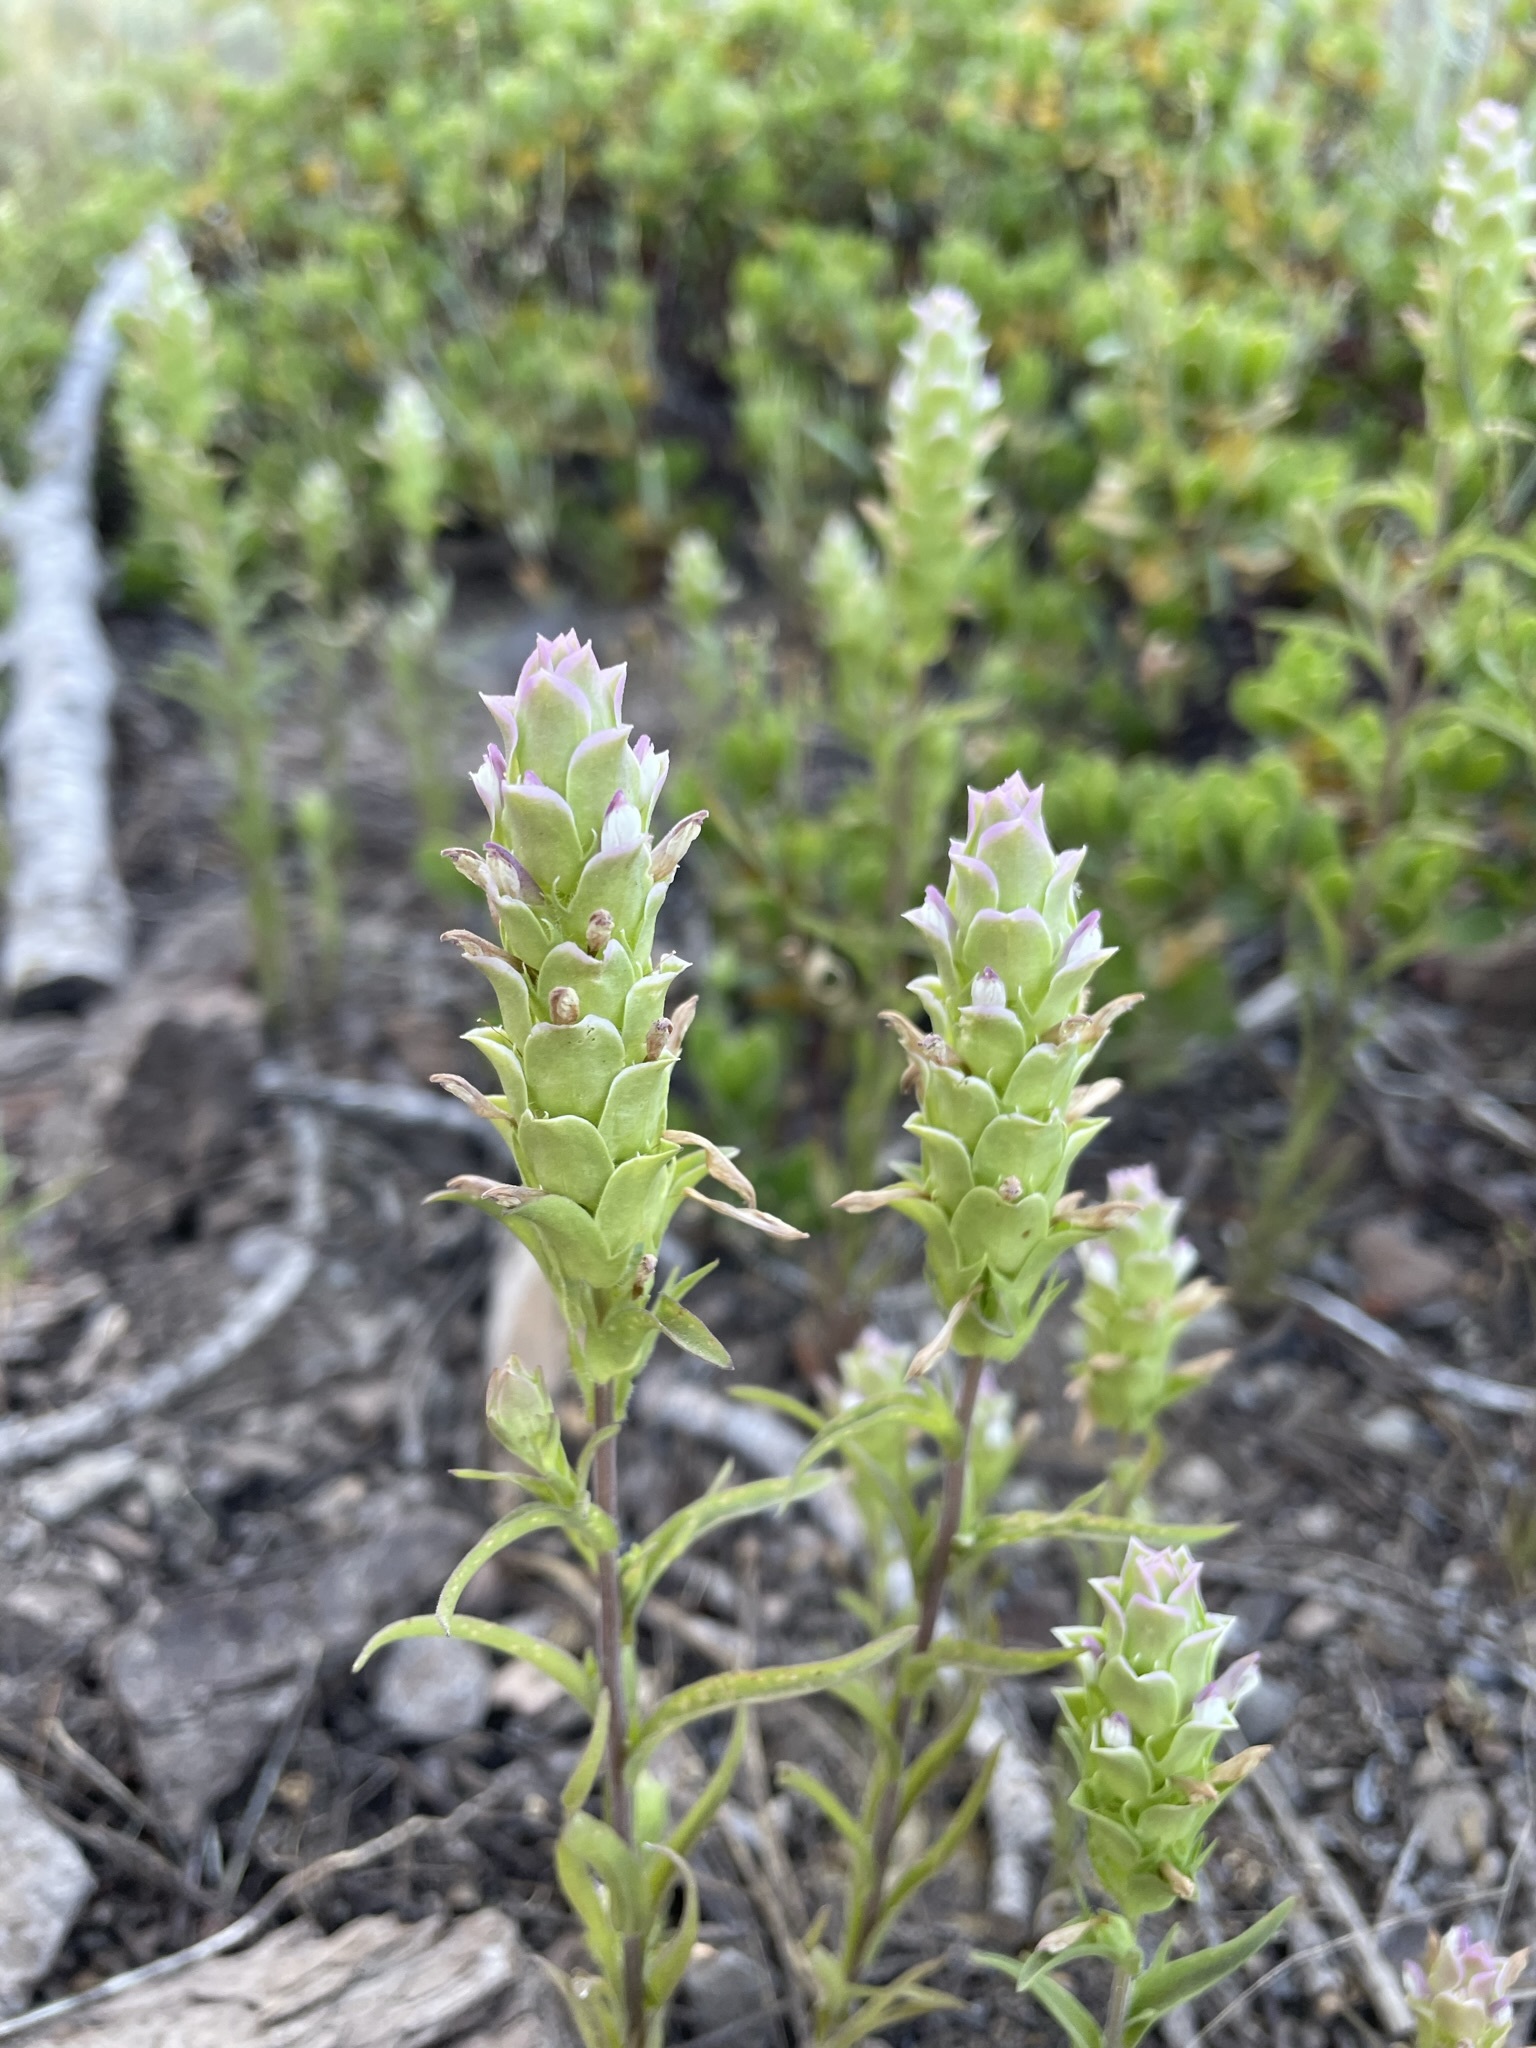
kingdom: Plantae
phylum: Tracheophyta
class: Magnoliopsida
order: Lamiales
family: Orobanchaceae
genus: Orthocarpus
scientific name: Orthocarpus cuspidatus
